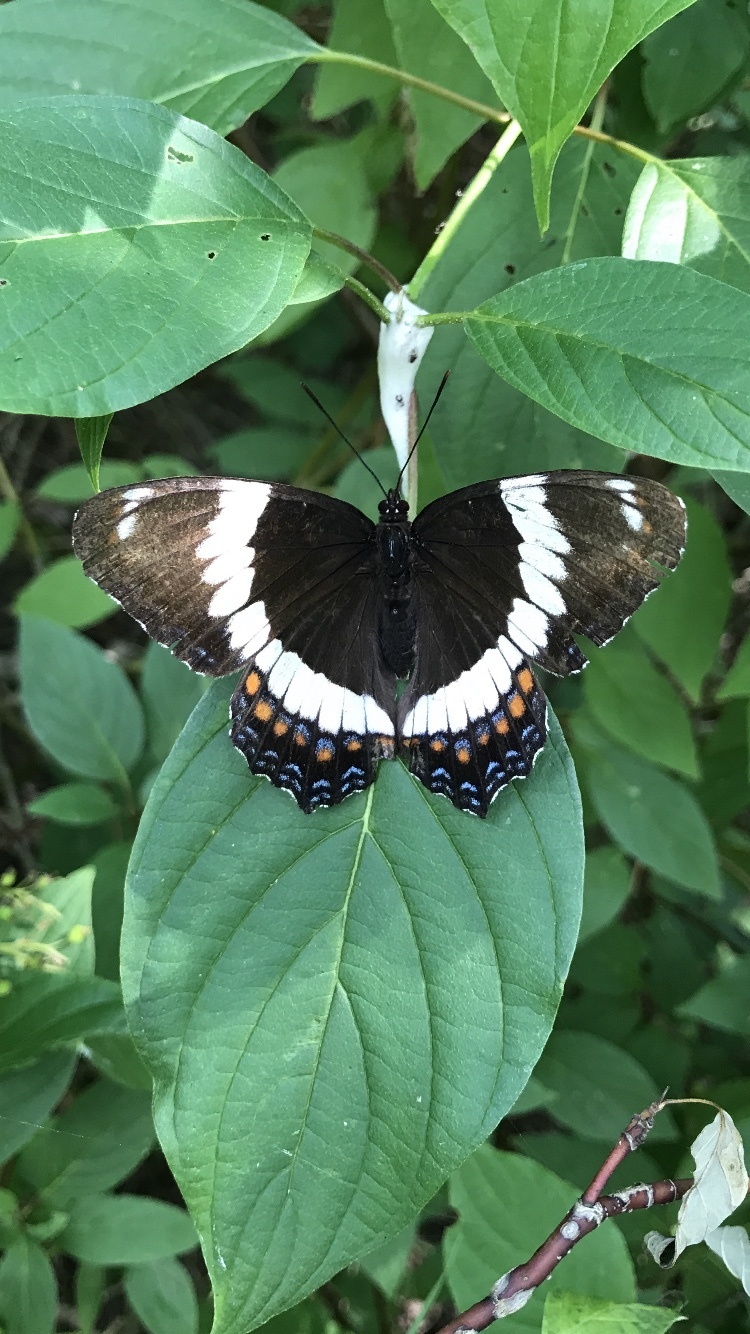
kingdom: Animalia
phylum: Arthropoda
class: Insecta
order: Lepidoptera
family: Nymphalidae
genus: Limenitis
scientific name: Limenitis arthemis
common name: Red-spotted admiral
